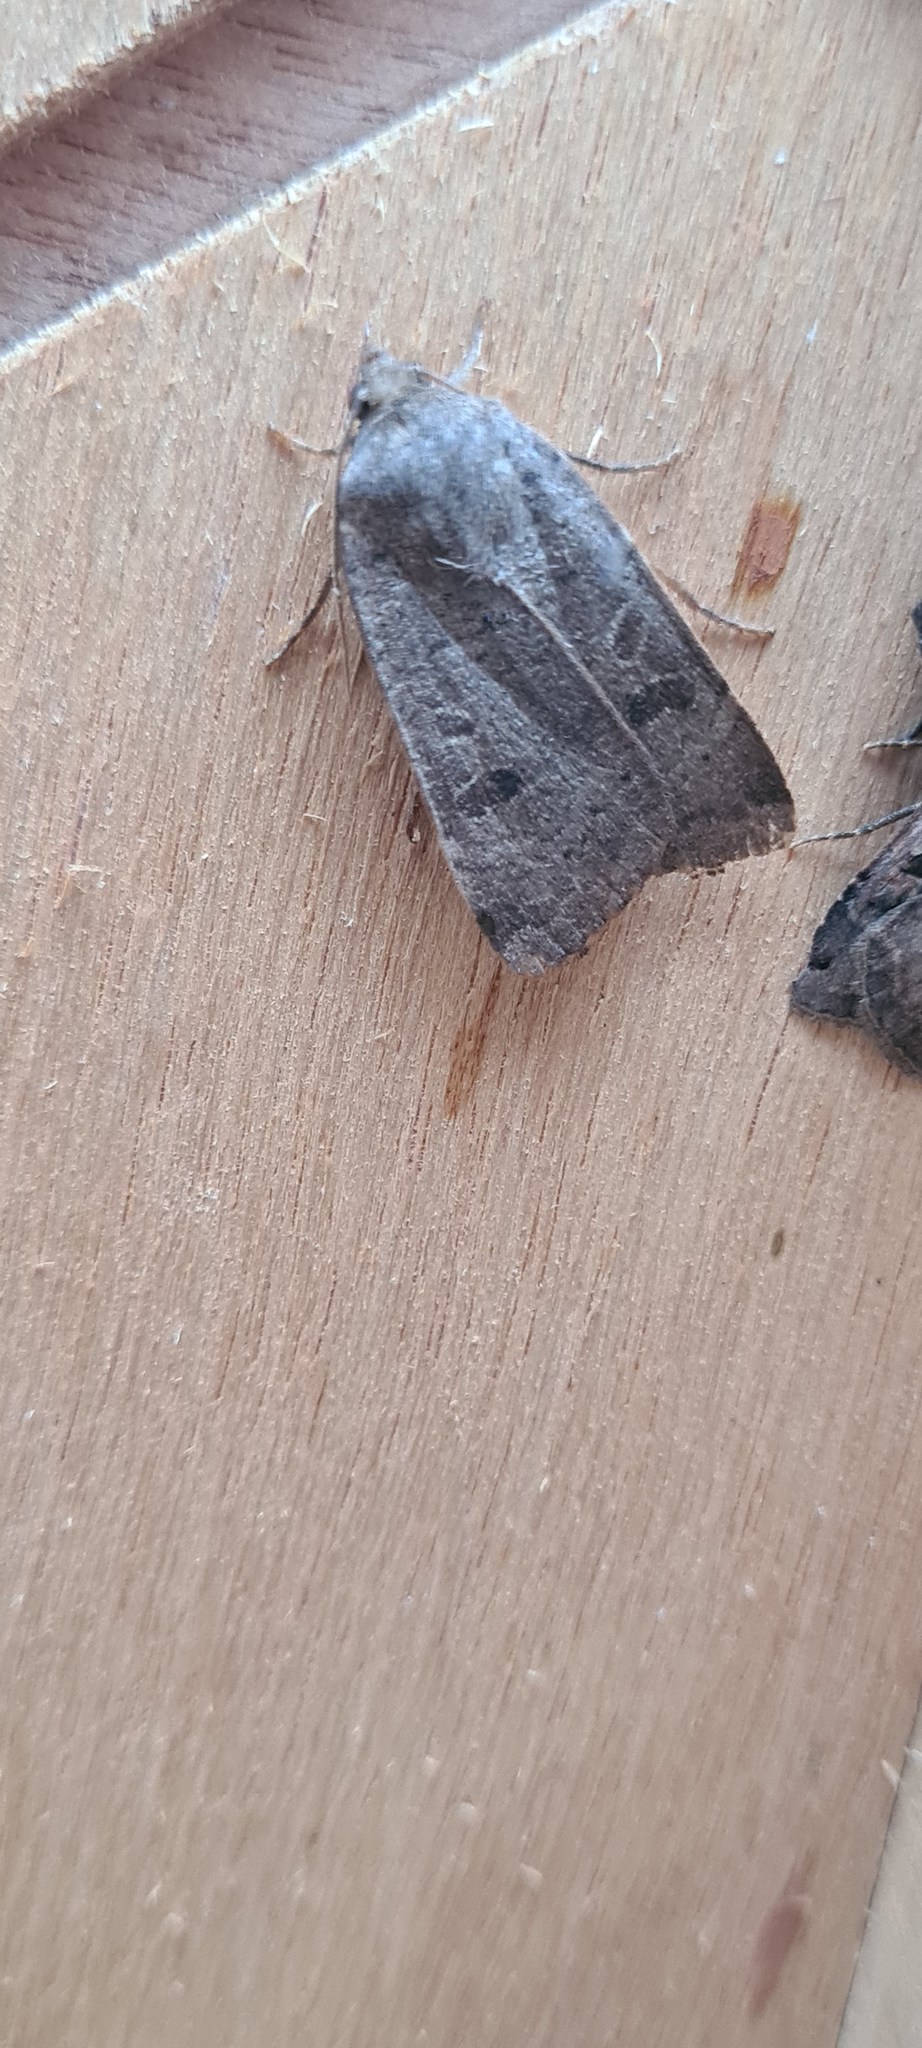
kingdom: Animalia
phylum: Arthropoda
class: Insecta
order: Lepidoptera
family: Noctuidae
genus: Noctua
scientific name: Noctua comes
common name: Lesser yellow underwing
